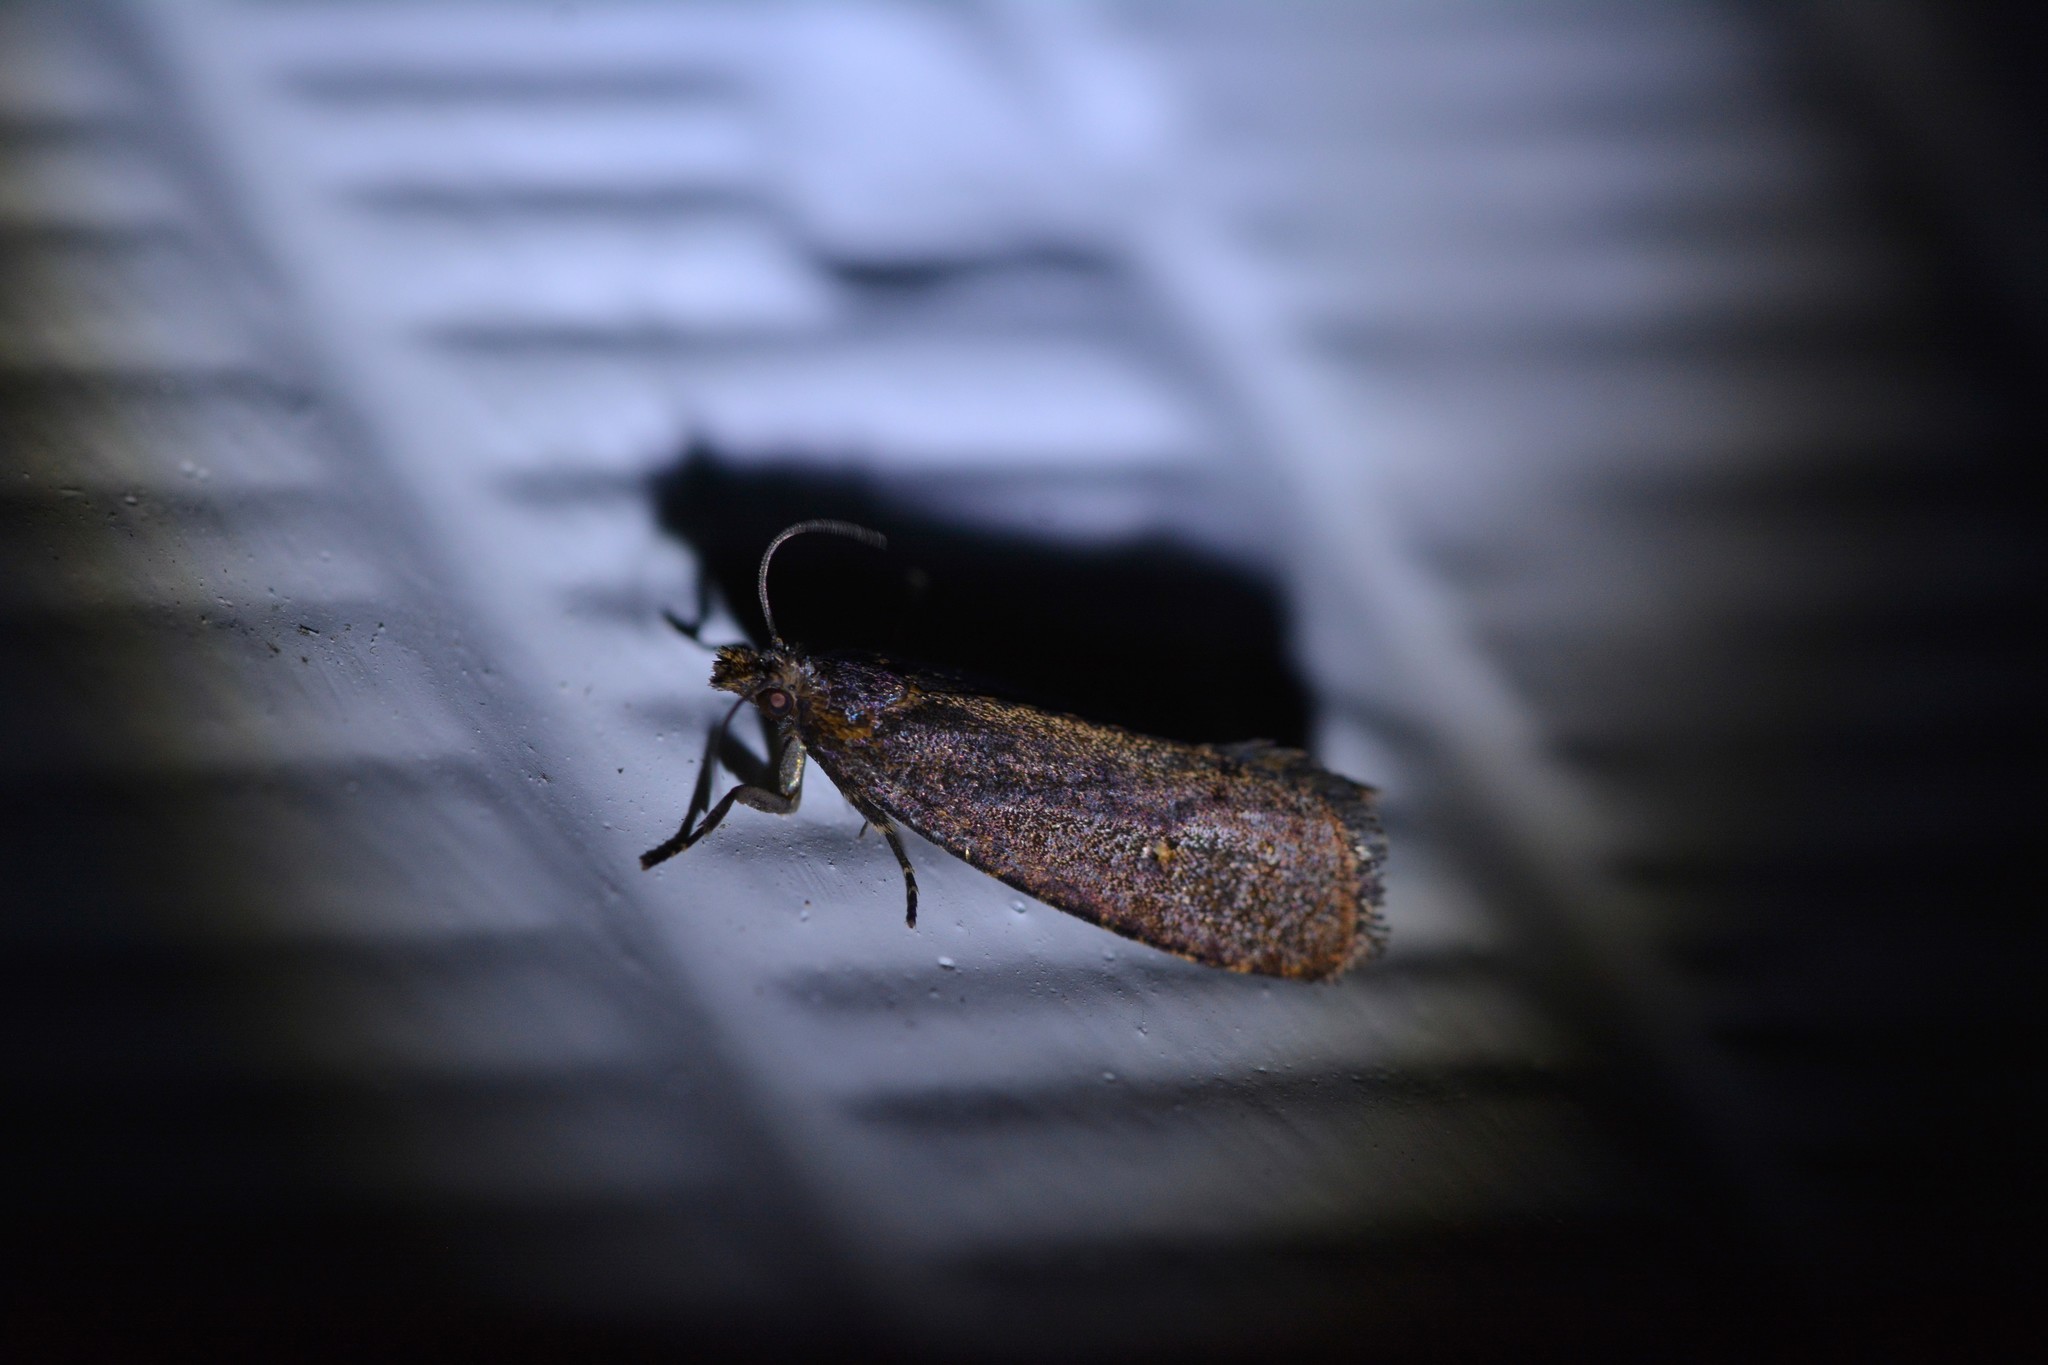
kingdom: Animalia
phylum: Arthropoda
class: Insecta
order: Lepidoptera
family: Tortricidae
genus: Cryptaspasma
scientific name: Cryptaspasma querula
